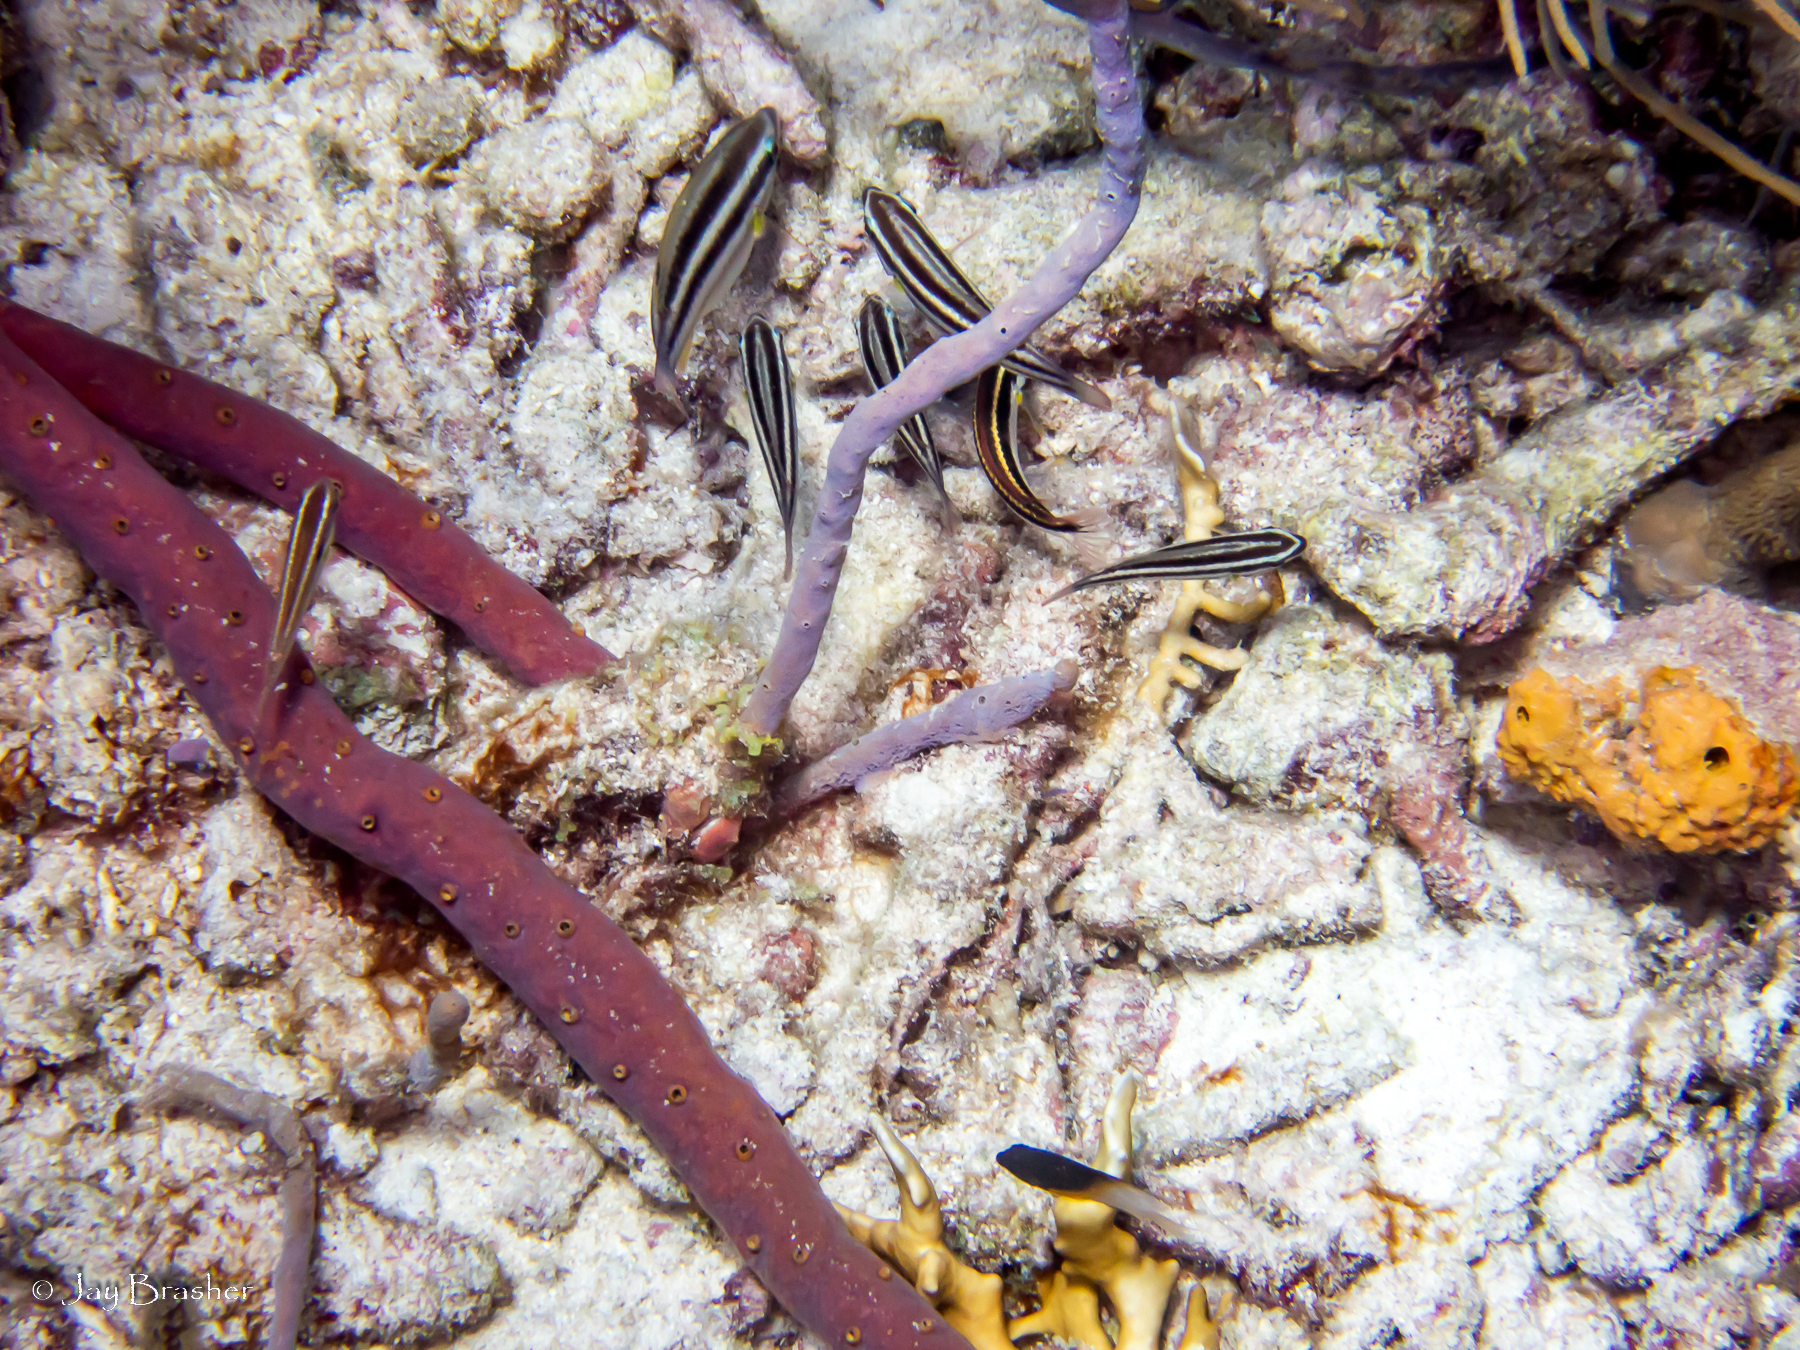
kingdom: Animalia
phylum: Porifera
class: Demospongiae
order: Verongiida
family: Aplysinidae
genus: Aiolochroia
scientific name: Aiolochroia crassa
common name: Branching tube sponge
